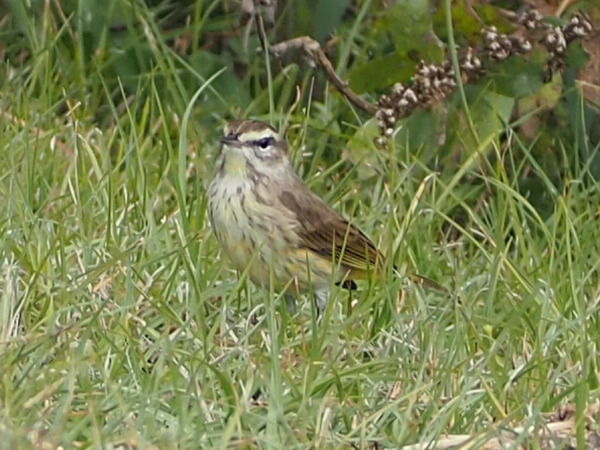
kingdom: Animalia
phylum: Chordata
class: Aves
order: Passeriformes
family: Parulidae
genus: Setophaga
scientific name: Setophaga palmarum
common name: Palm warbler
